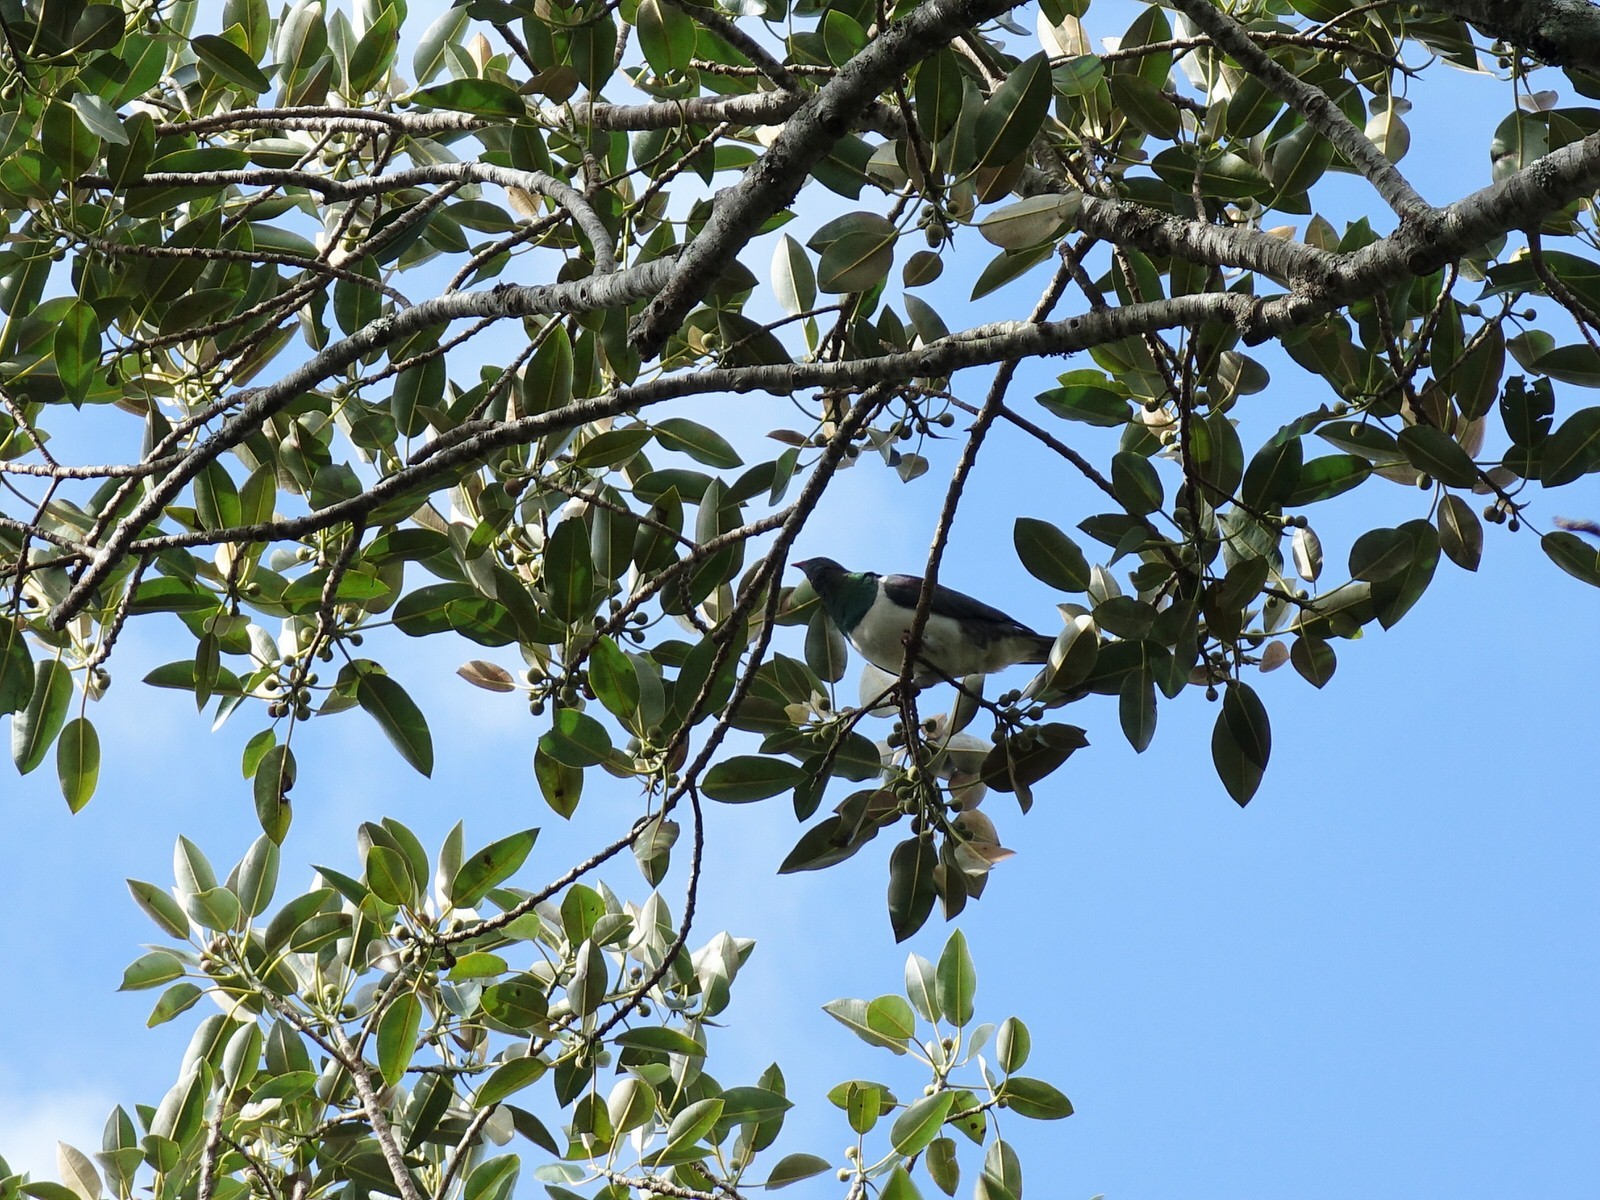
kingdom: Animalia
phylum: Chordata
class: Aves
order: Columbiformes
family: Columbidae
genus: Hemiphaga
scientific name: Hemiphaga novaeseelandiae
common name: New zealand pigeon
